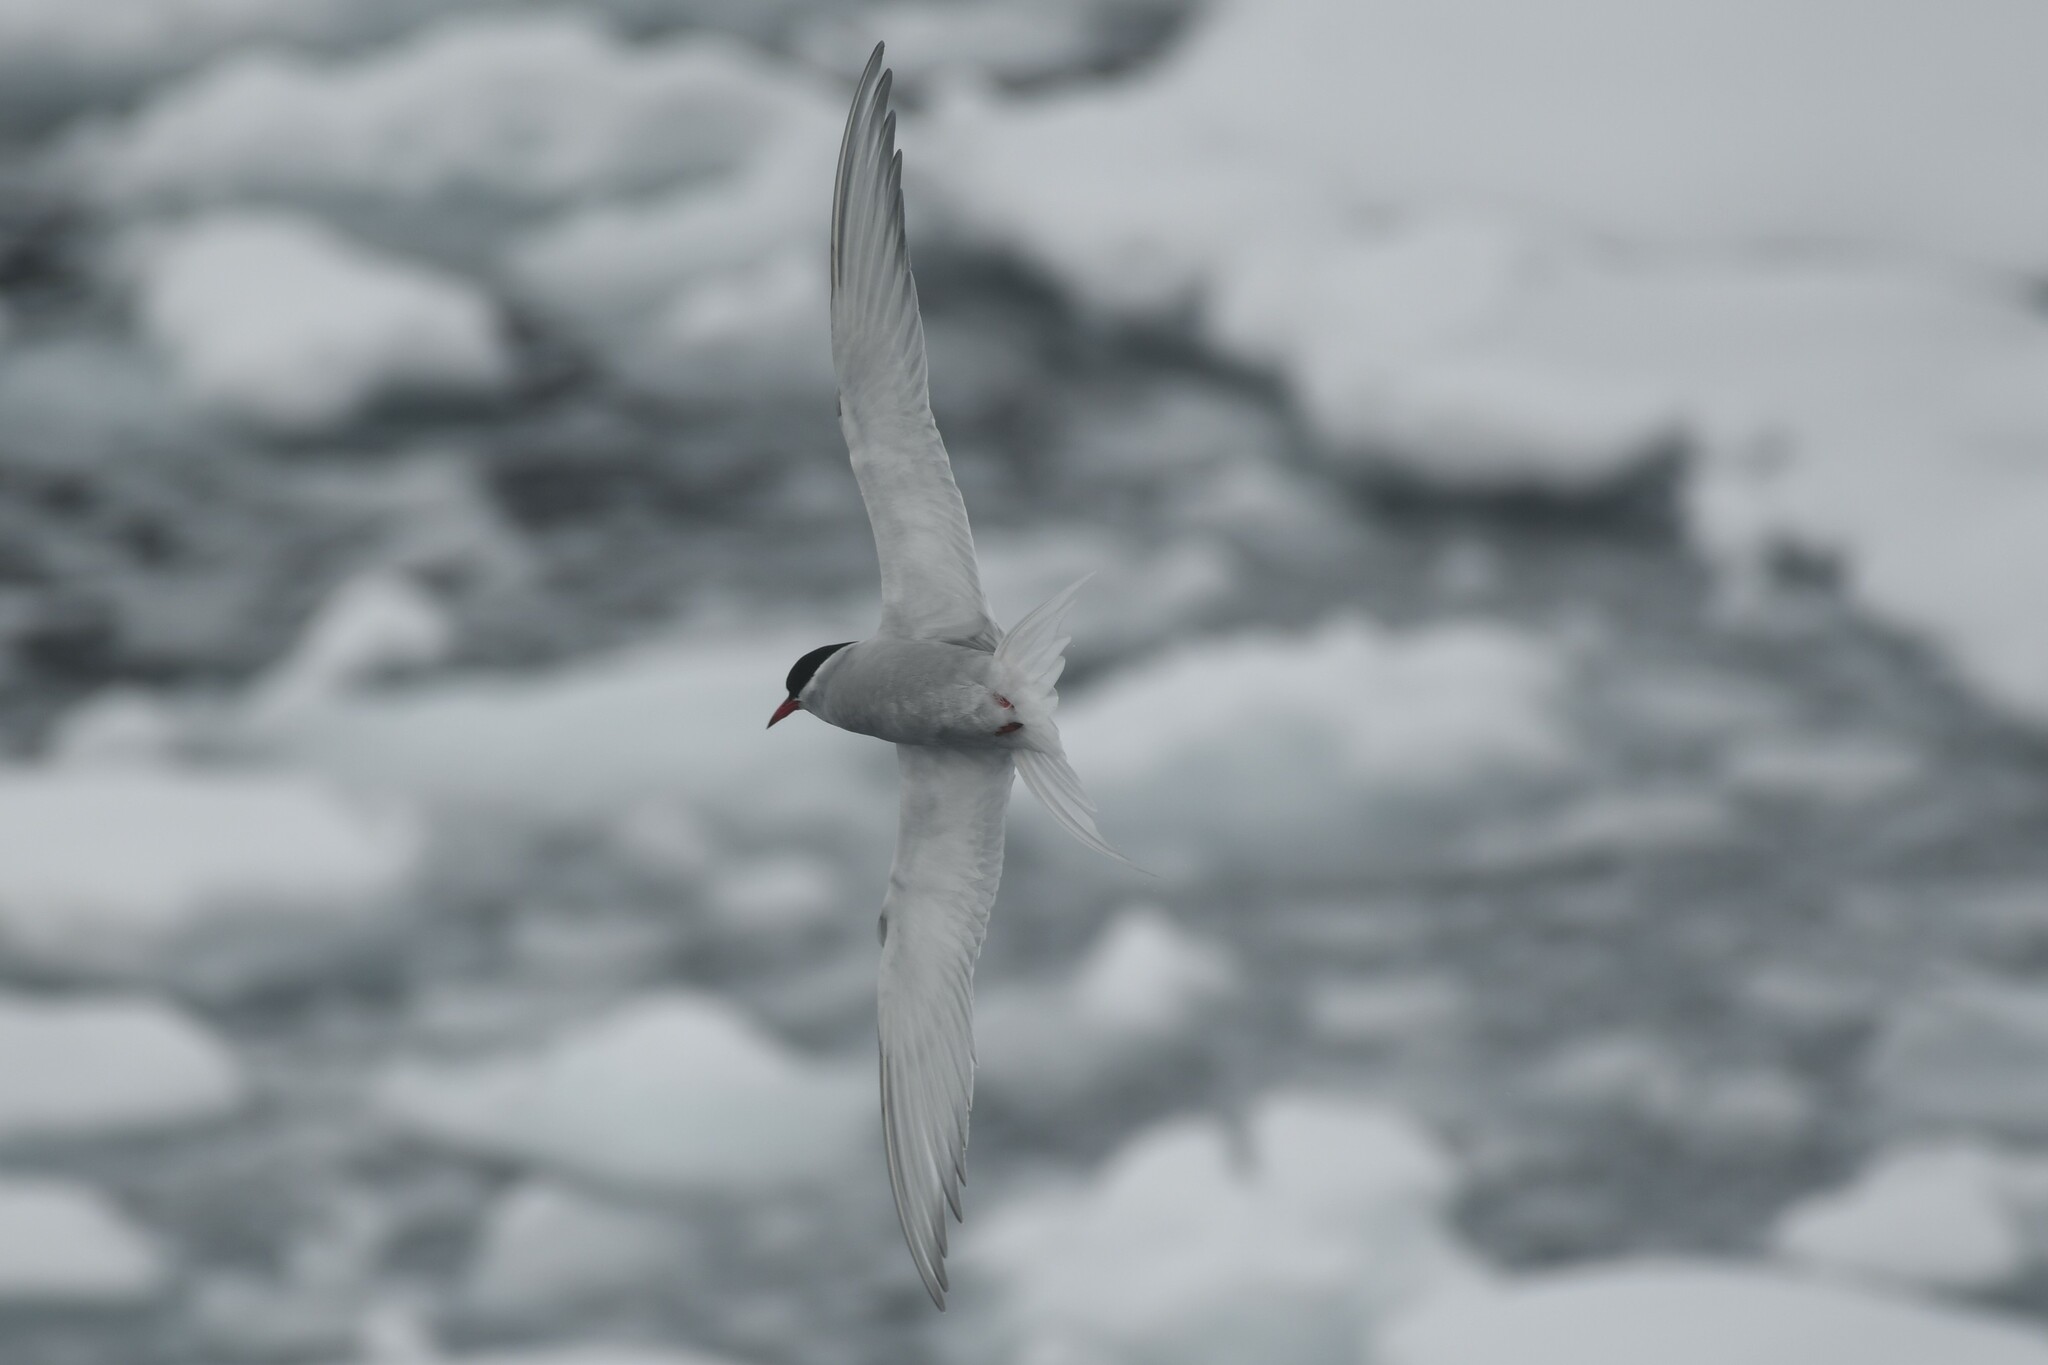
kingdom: Animalia
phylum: Chordata
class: Aves
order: Charadriiformes
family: Laridae
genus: Sterna
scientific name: Sterna vittata
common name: Antarctic tern
